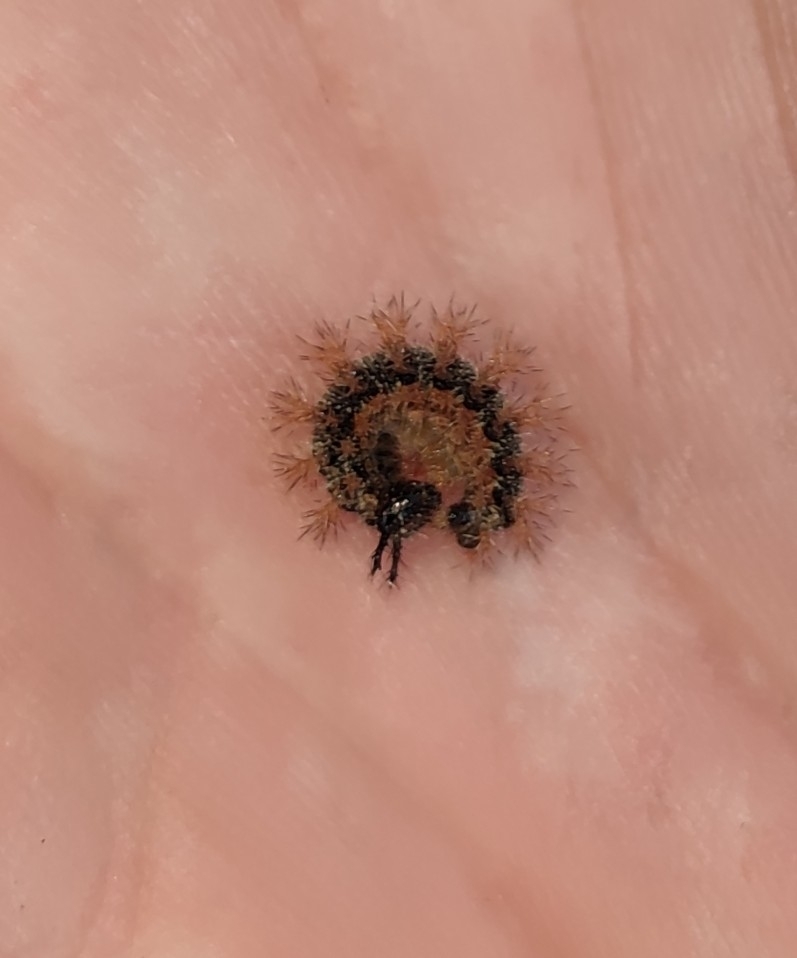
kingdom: Animalia
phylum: Arthropoda
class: Insecta
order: Lepidoptera
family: Nymphalidae
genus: Araschnia
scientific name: Araschnia levana
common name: Map butterfly
